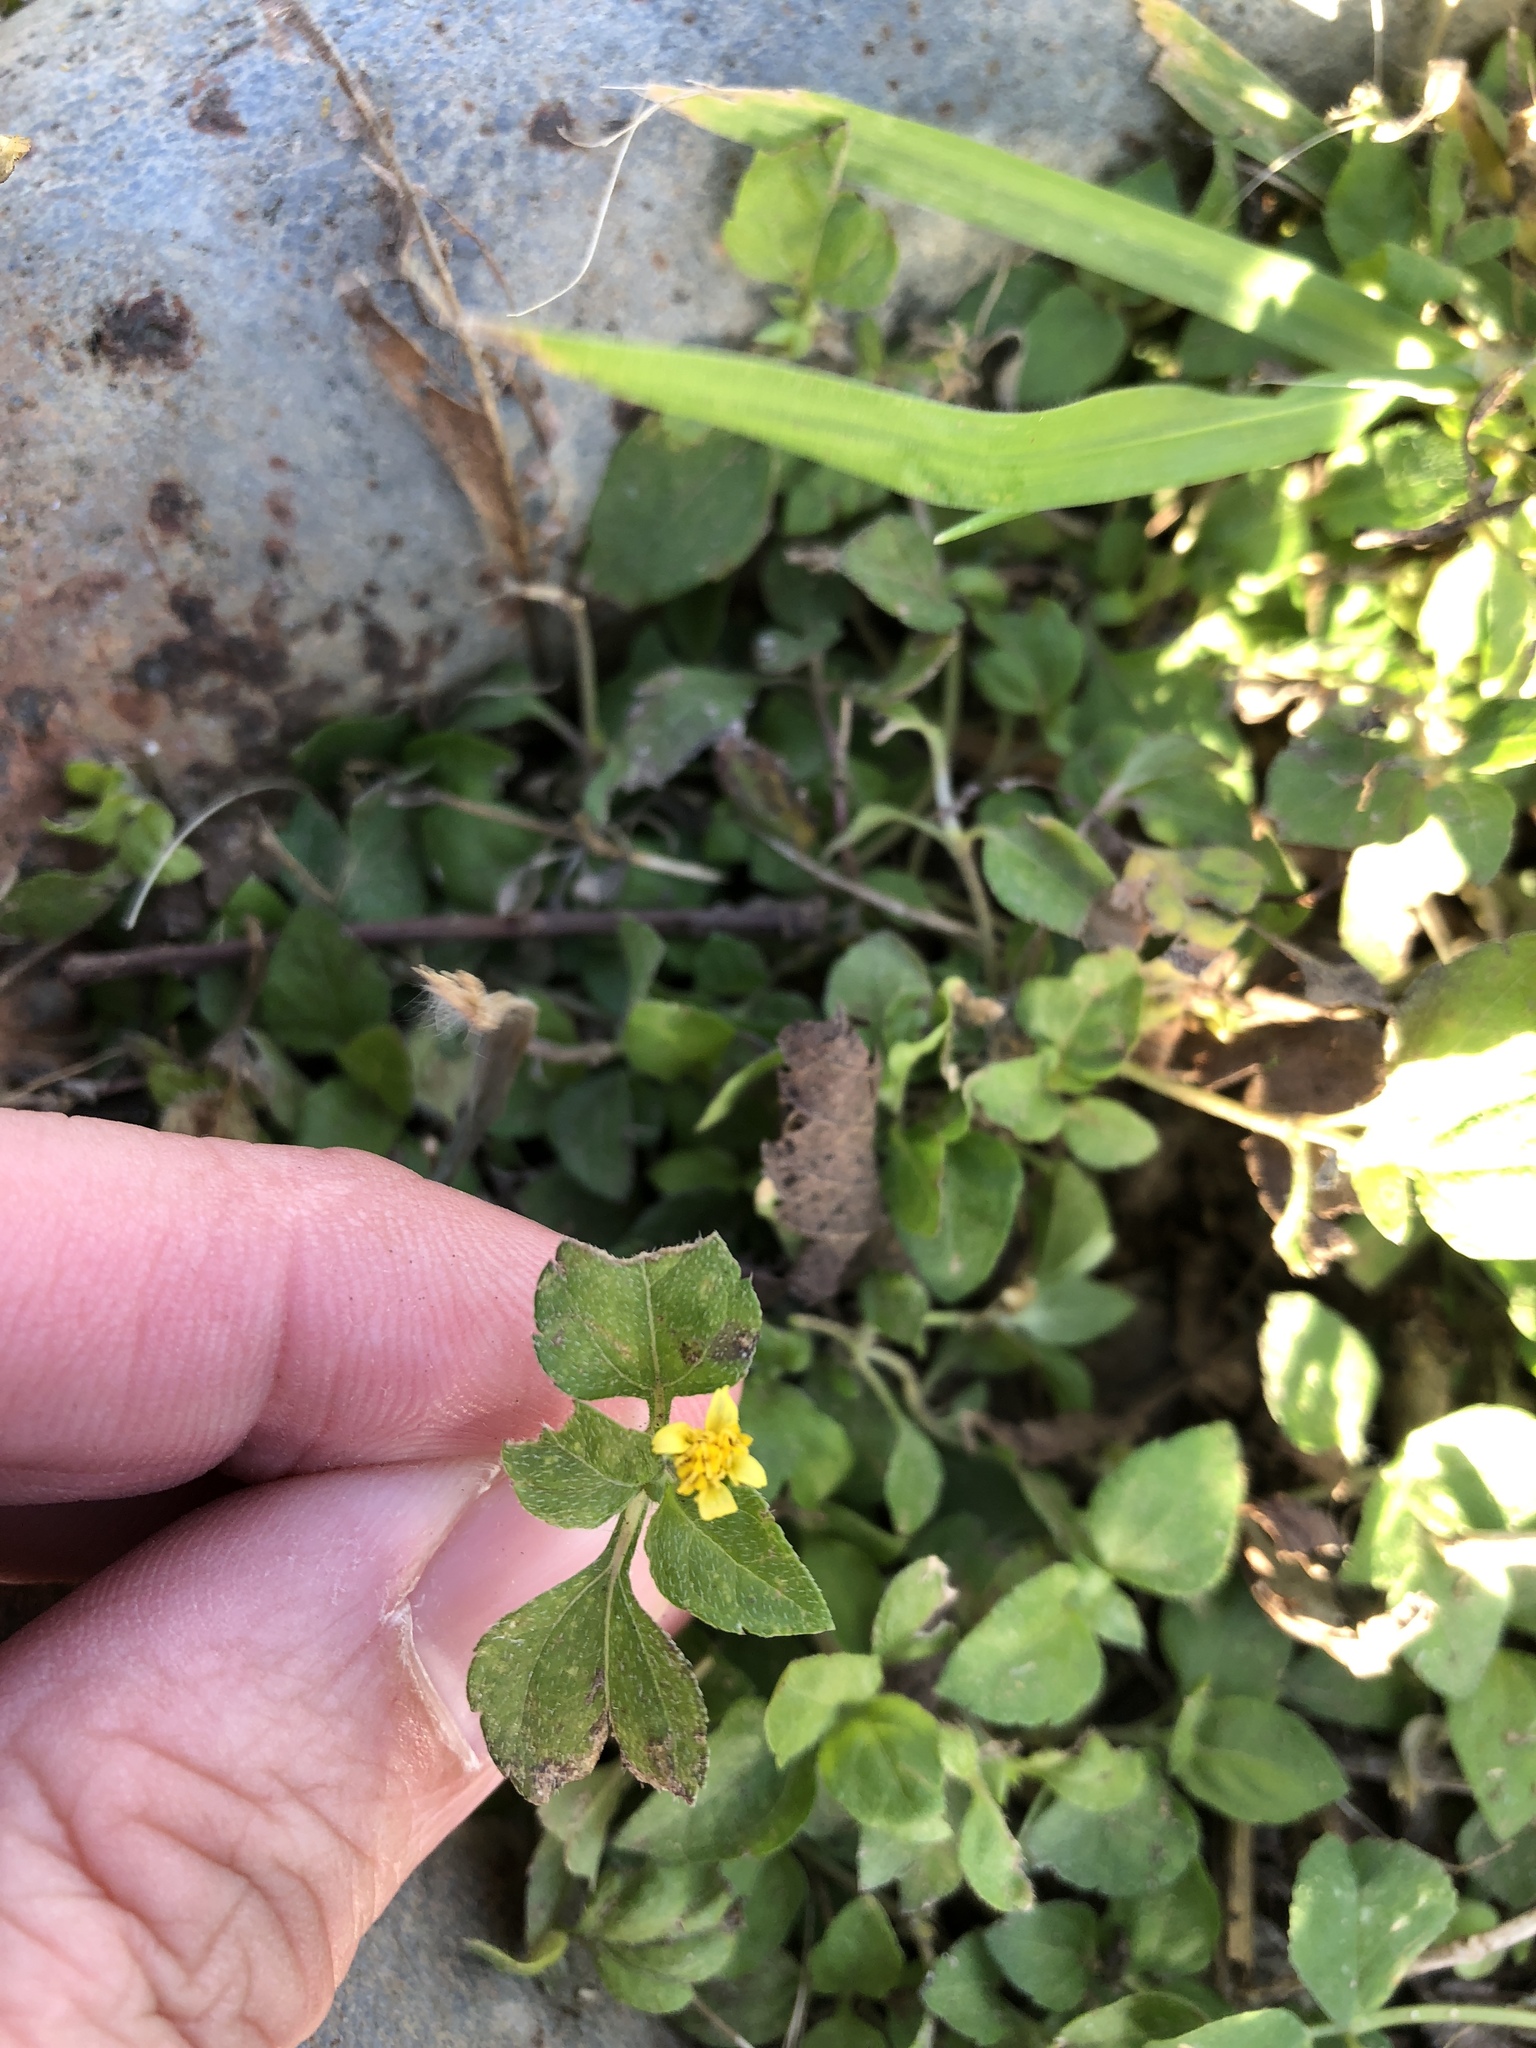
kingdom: Plantae
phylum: Tracheophyta
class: Magnoliopsida
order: Asterales
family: Asteraceae
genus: Calyptocarpus
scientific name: Calyptocarpus vialis
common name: Straggler daisy
